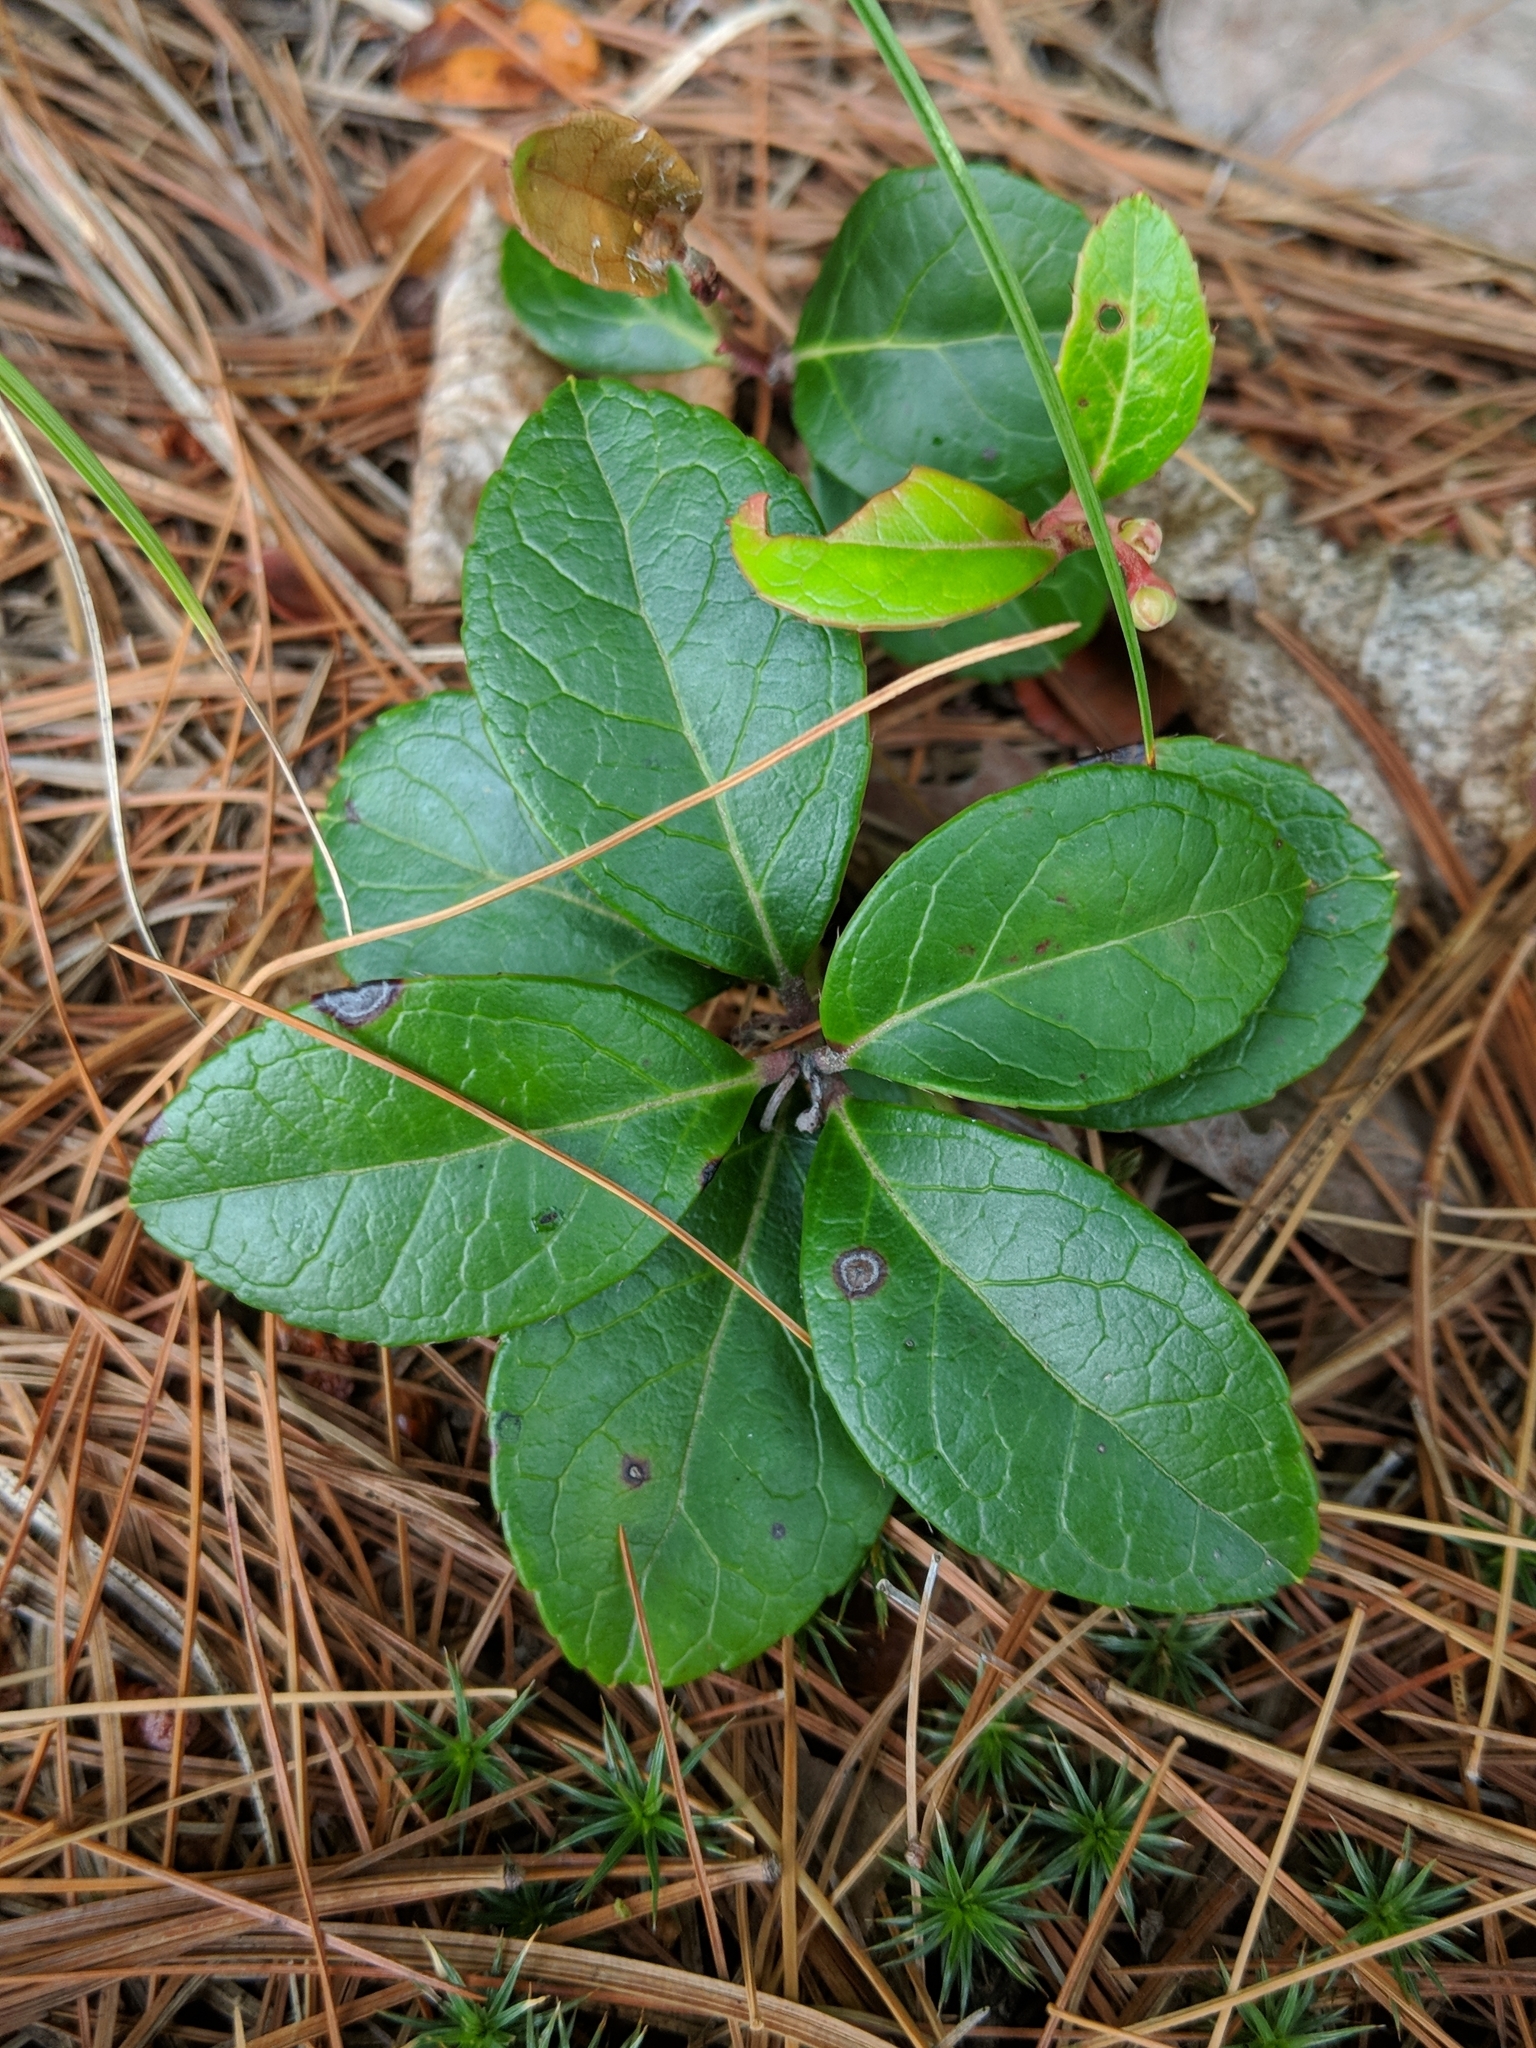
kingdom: Plantae
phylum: Tracheophyta
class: Magnoliopsida
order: Ericales
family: Ericaceae
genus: Gaultheria
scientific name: Gaultheria procumbens
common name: Checkerberry
